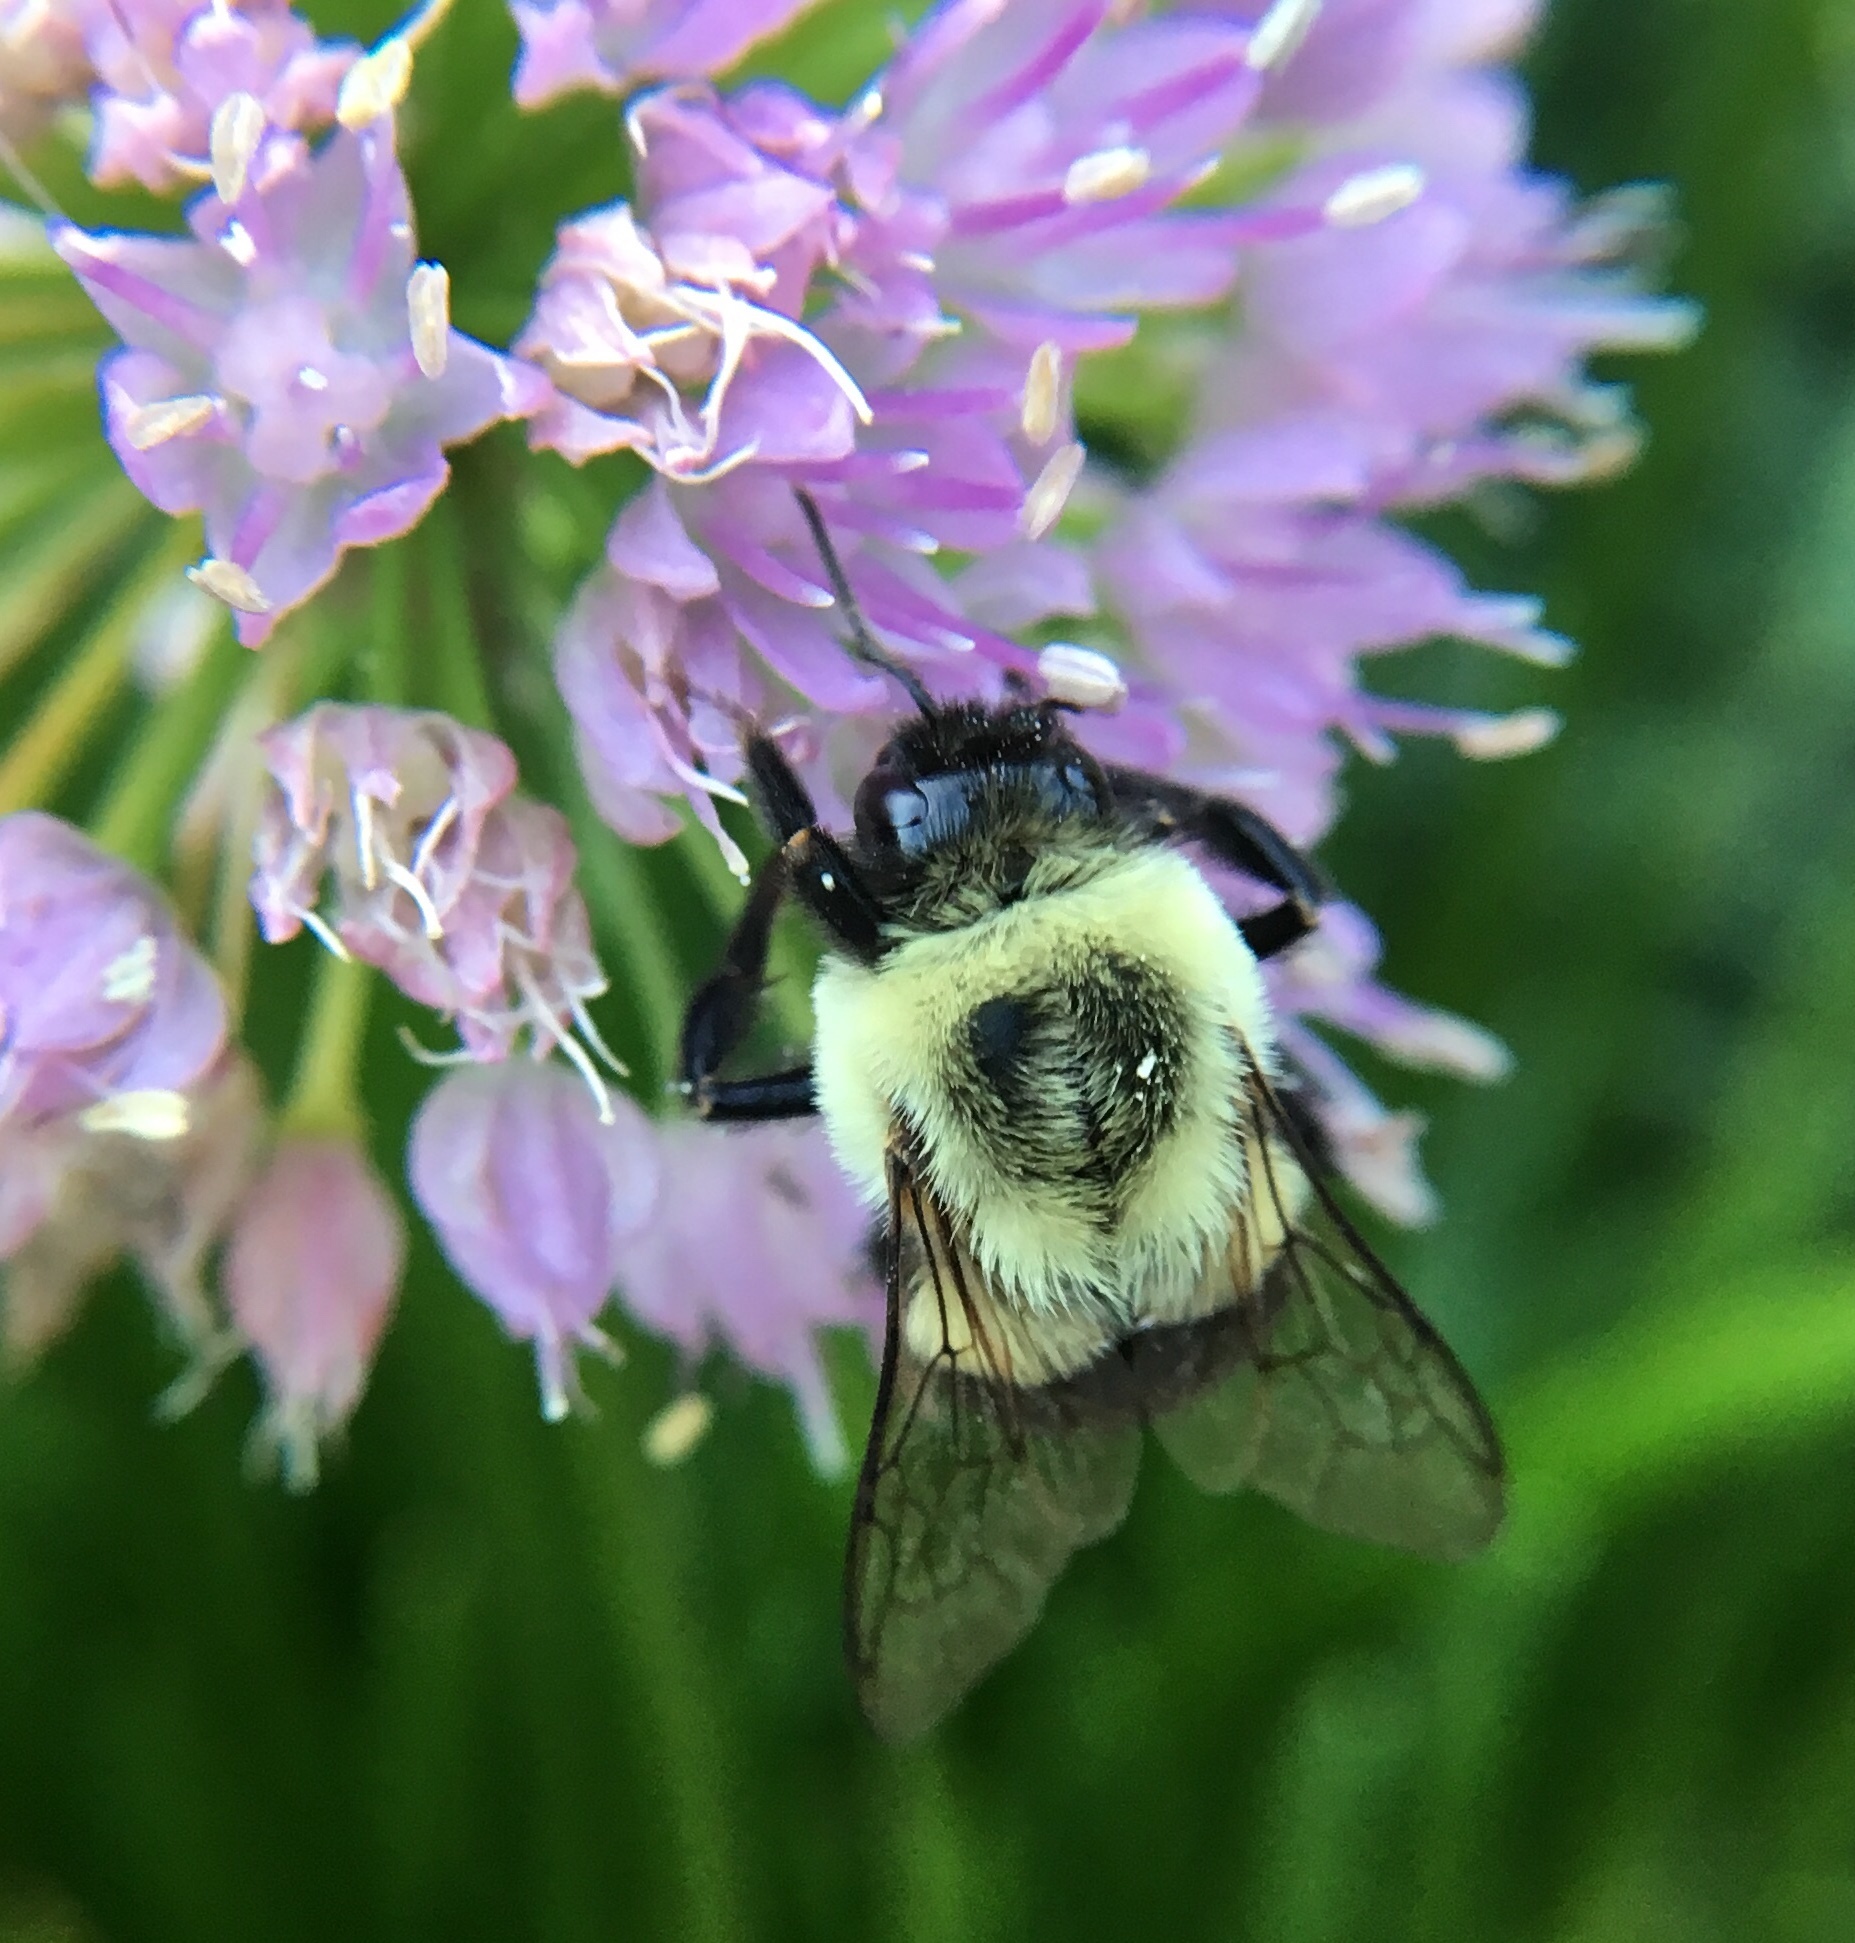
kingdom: Animalia
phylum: Arthropoda
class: Insecta
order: Hymenoptera
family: Apidae
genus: Bombus
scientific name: Bombus impatiens
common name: Common eastern bumble bee
